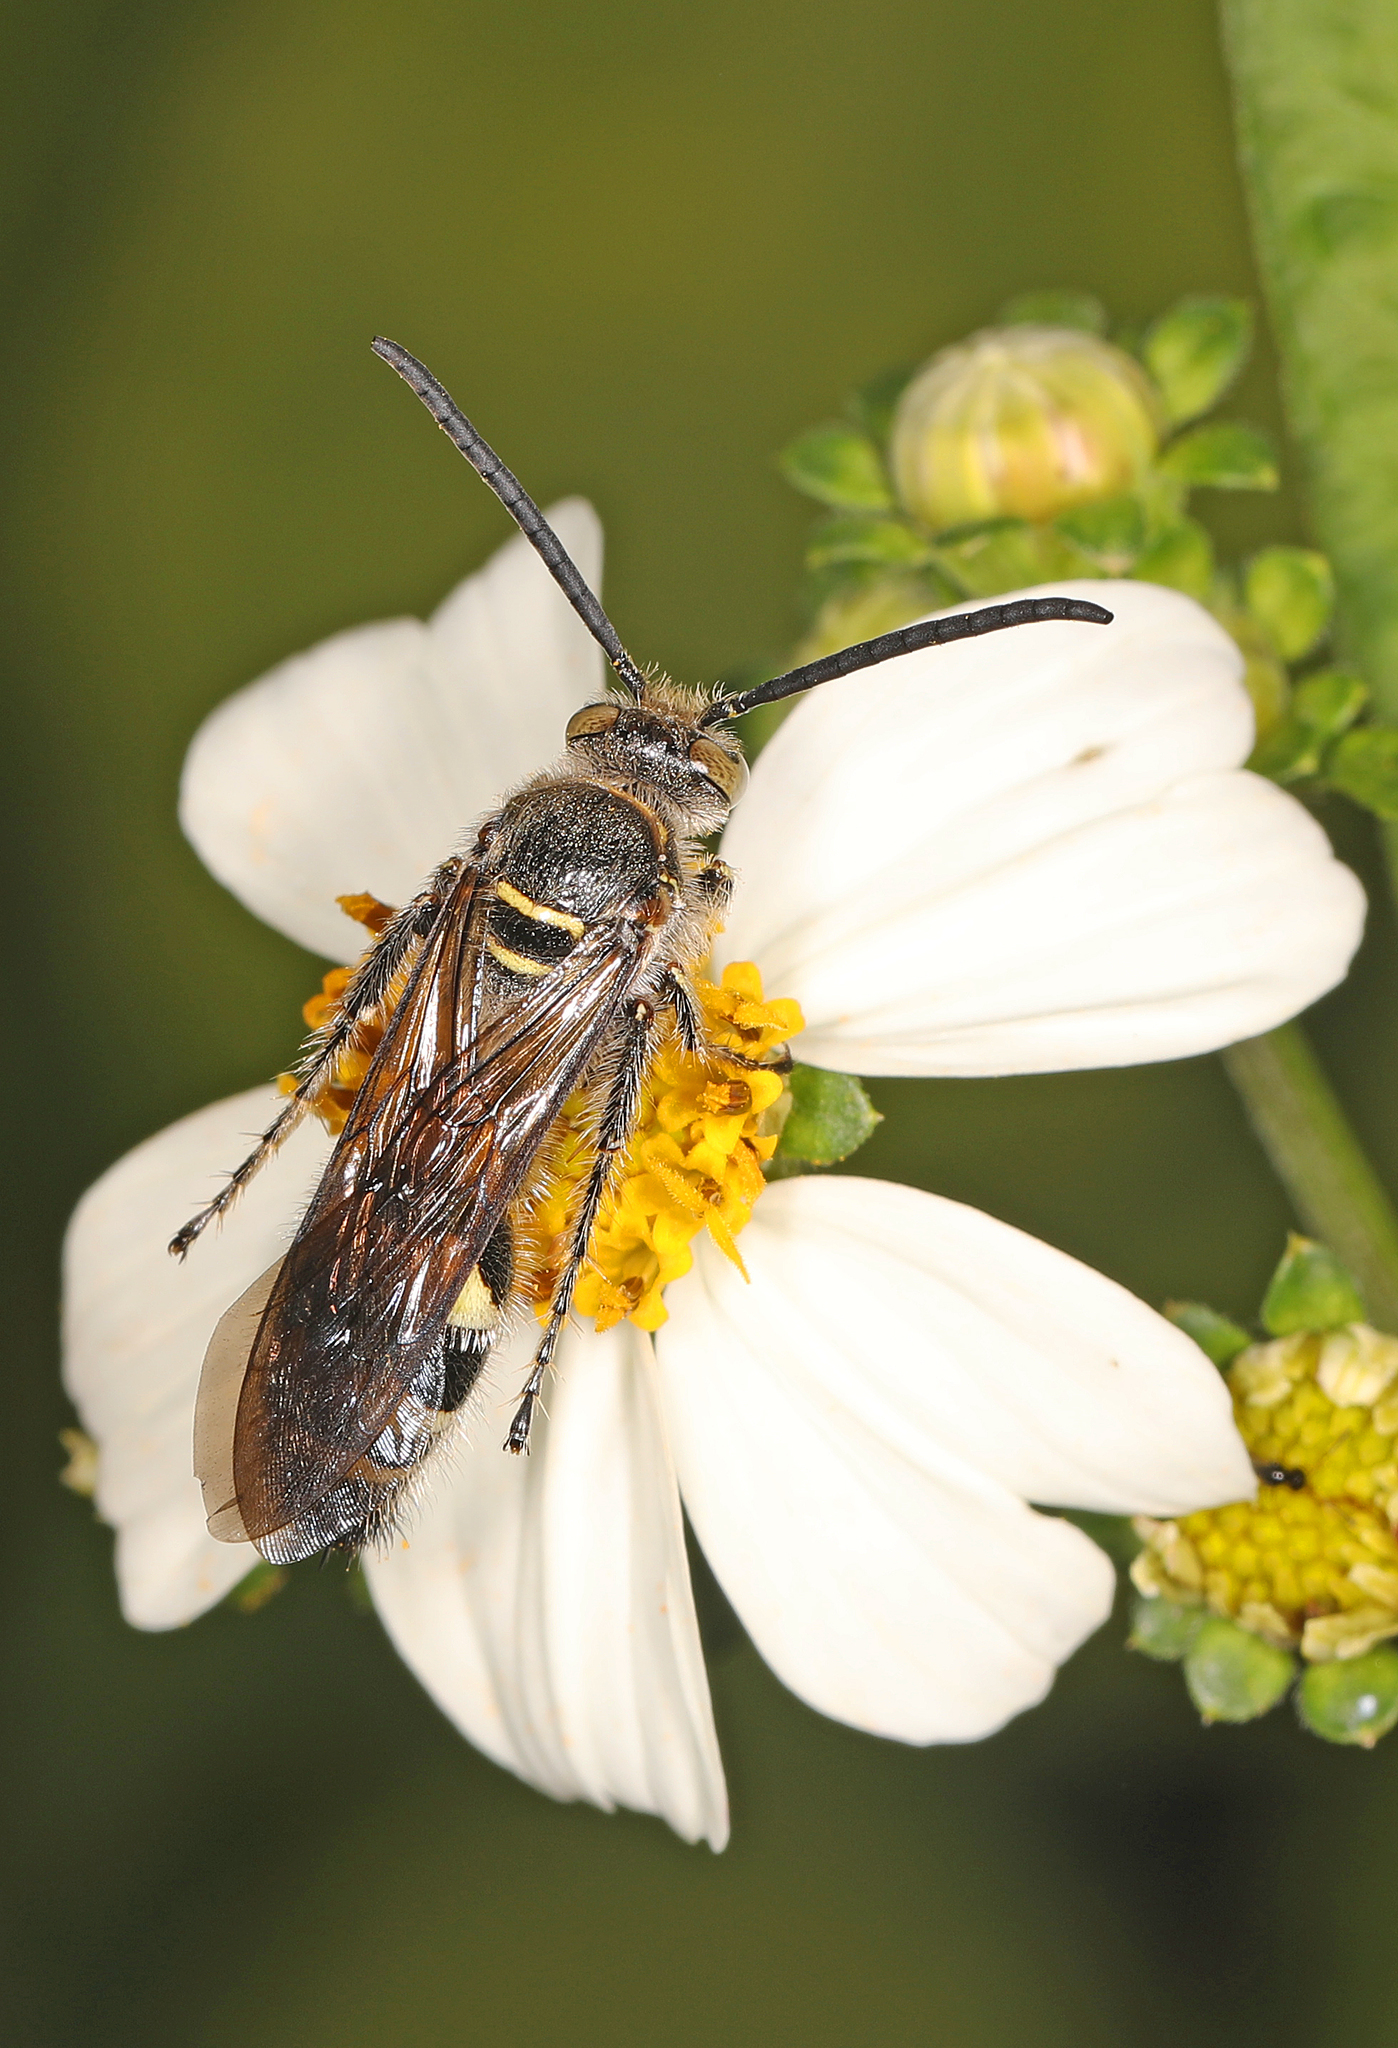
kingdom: Animalia
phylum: Arthropoda
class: Insecta
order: Hymenoptera
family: Scoliidae
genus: Dielis
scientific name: Dielis
